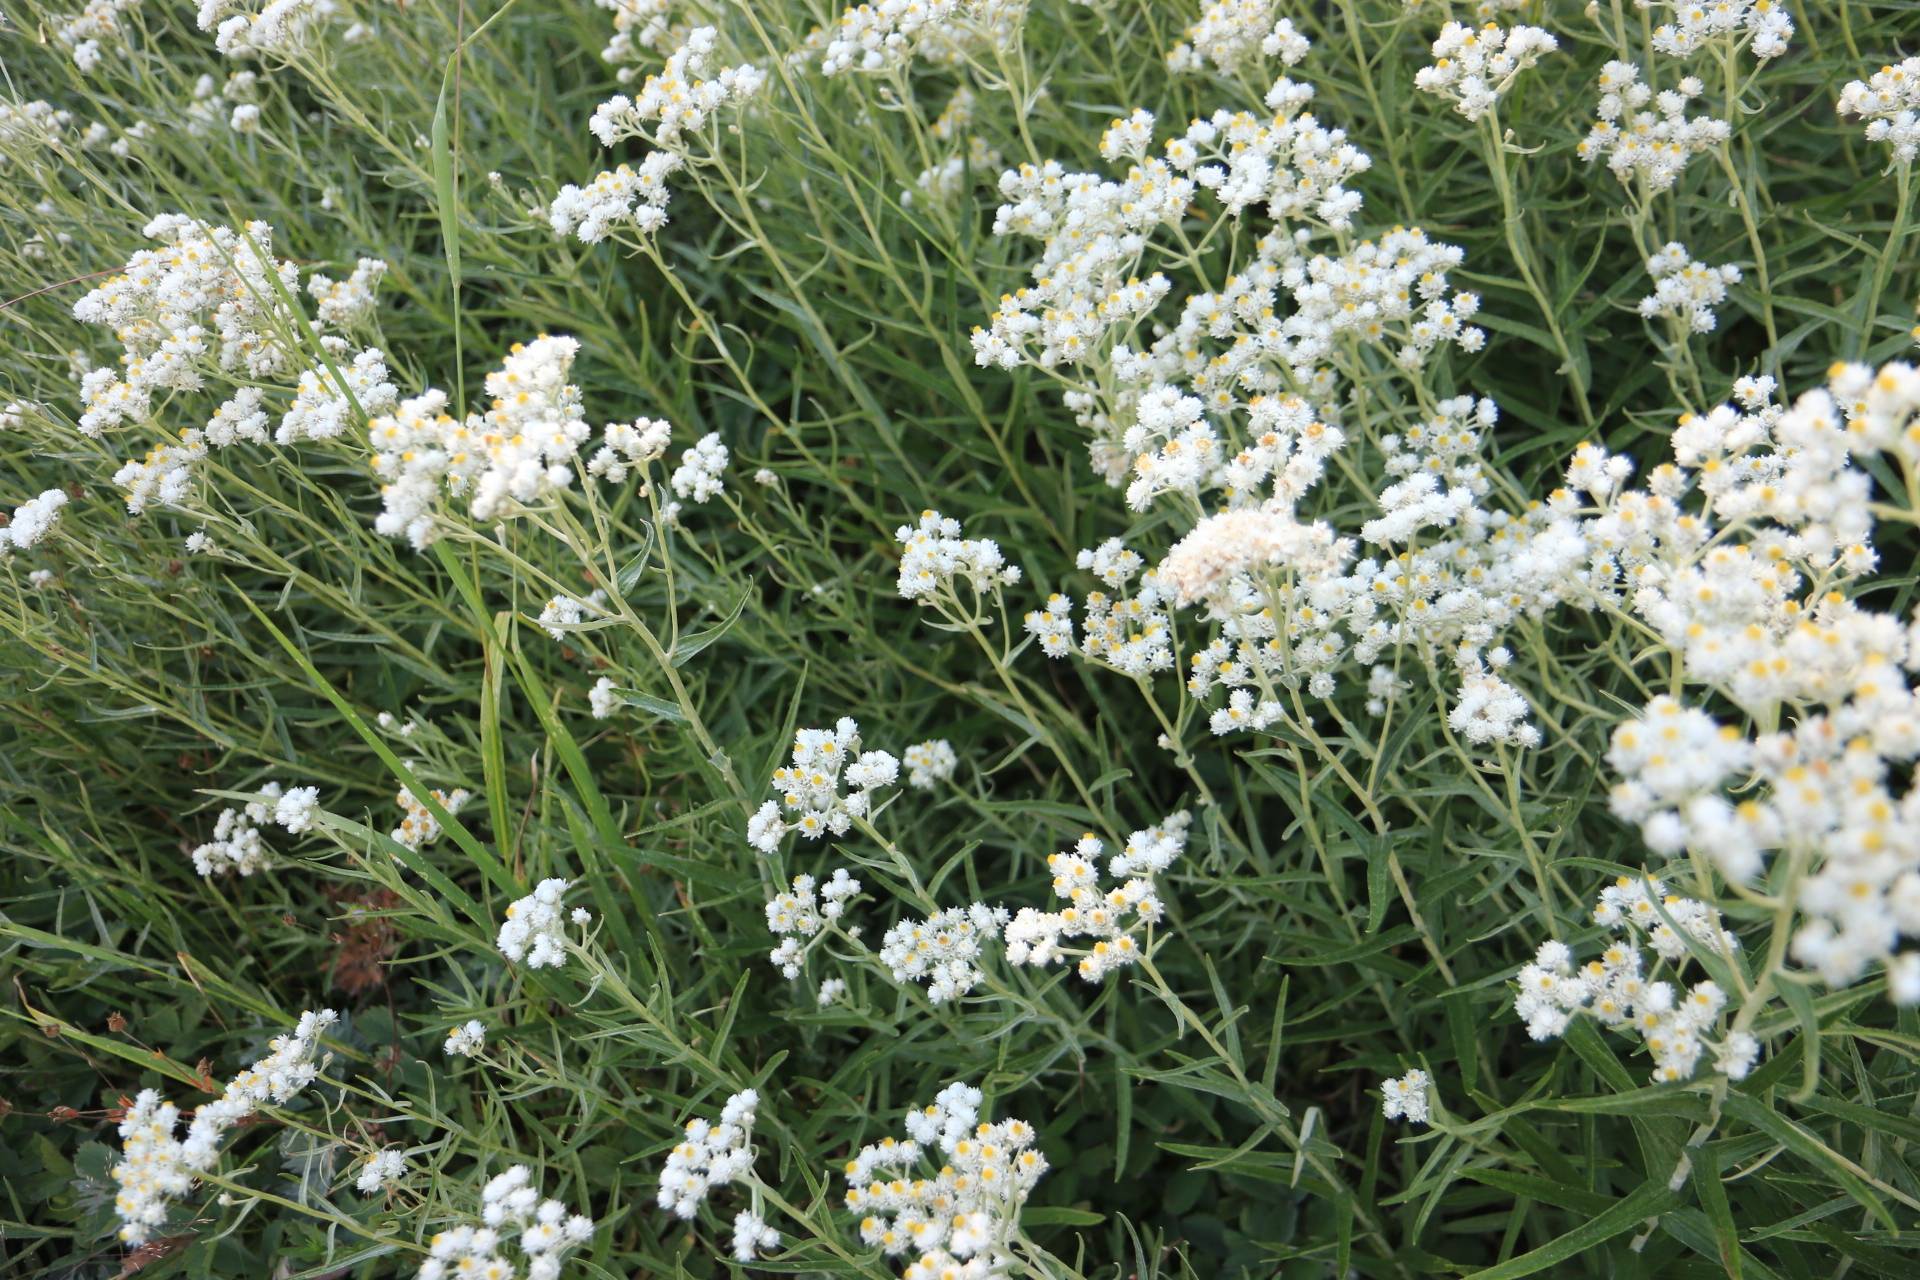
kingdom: Plantae
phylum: Tracheophyta
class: Magnoliopsida
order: Asterales
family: Asteraceae
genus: Anaphalis
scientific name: Anaphalis margaritacea
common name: Pearly everlasting
